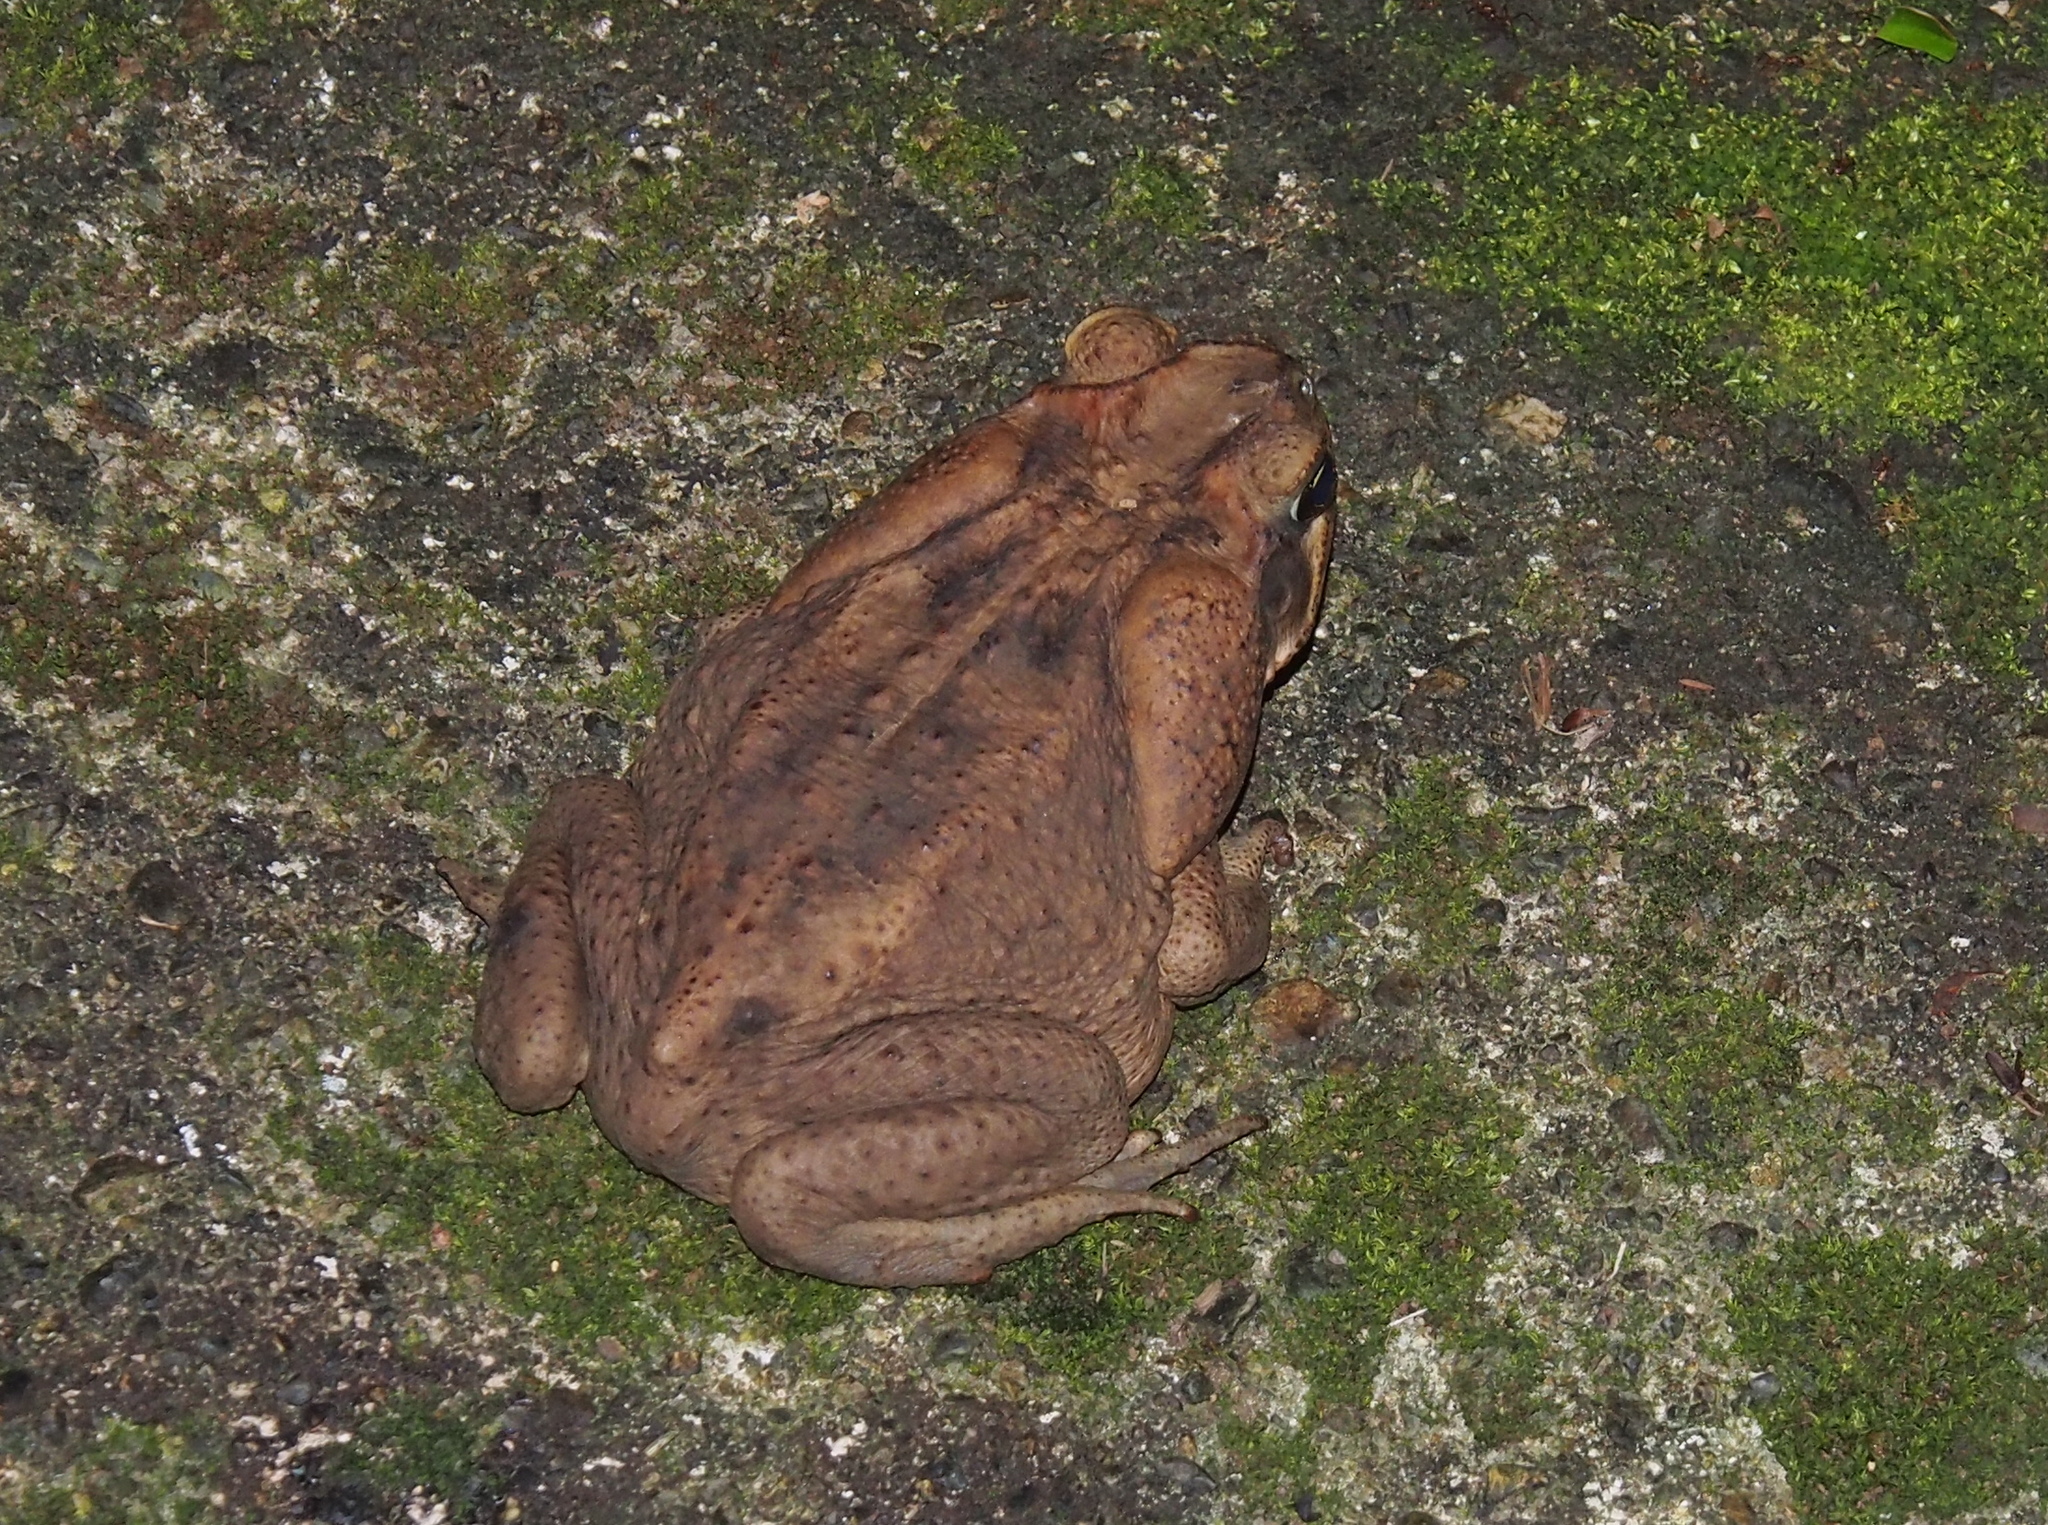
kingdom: Animalia
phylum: Chordata
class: Amphibia
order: Anura
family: Bufonidae
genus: Rhinella
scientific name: Rhinella horribilis
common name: Mesoamerican cane toad
